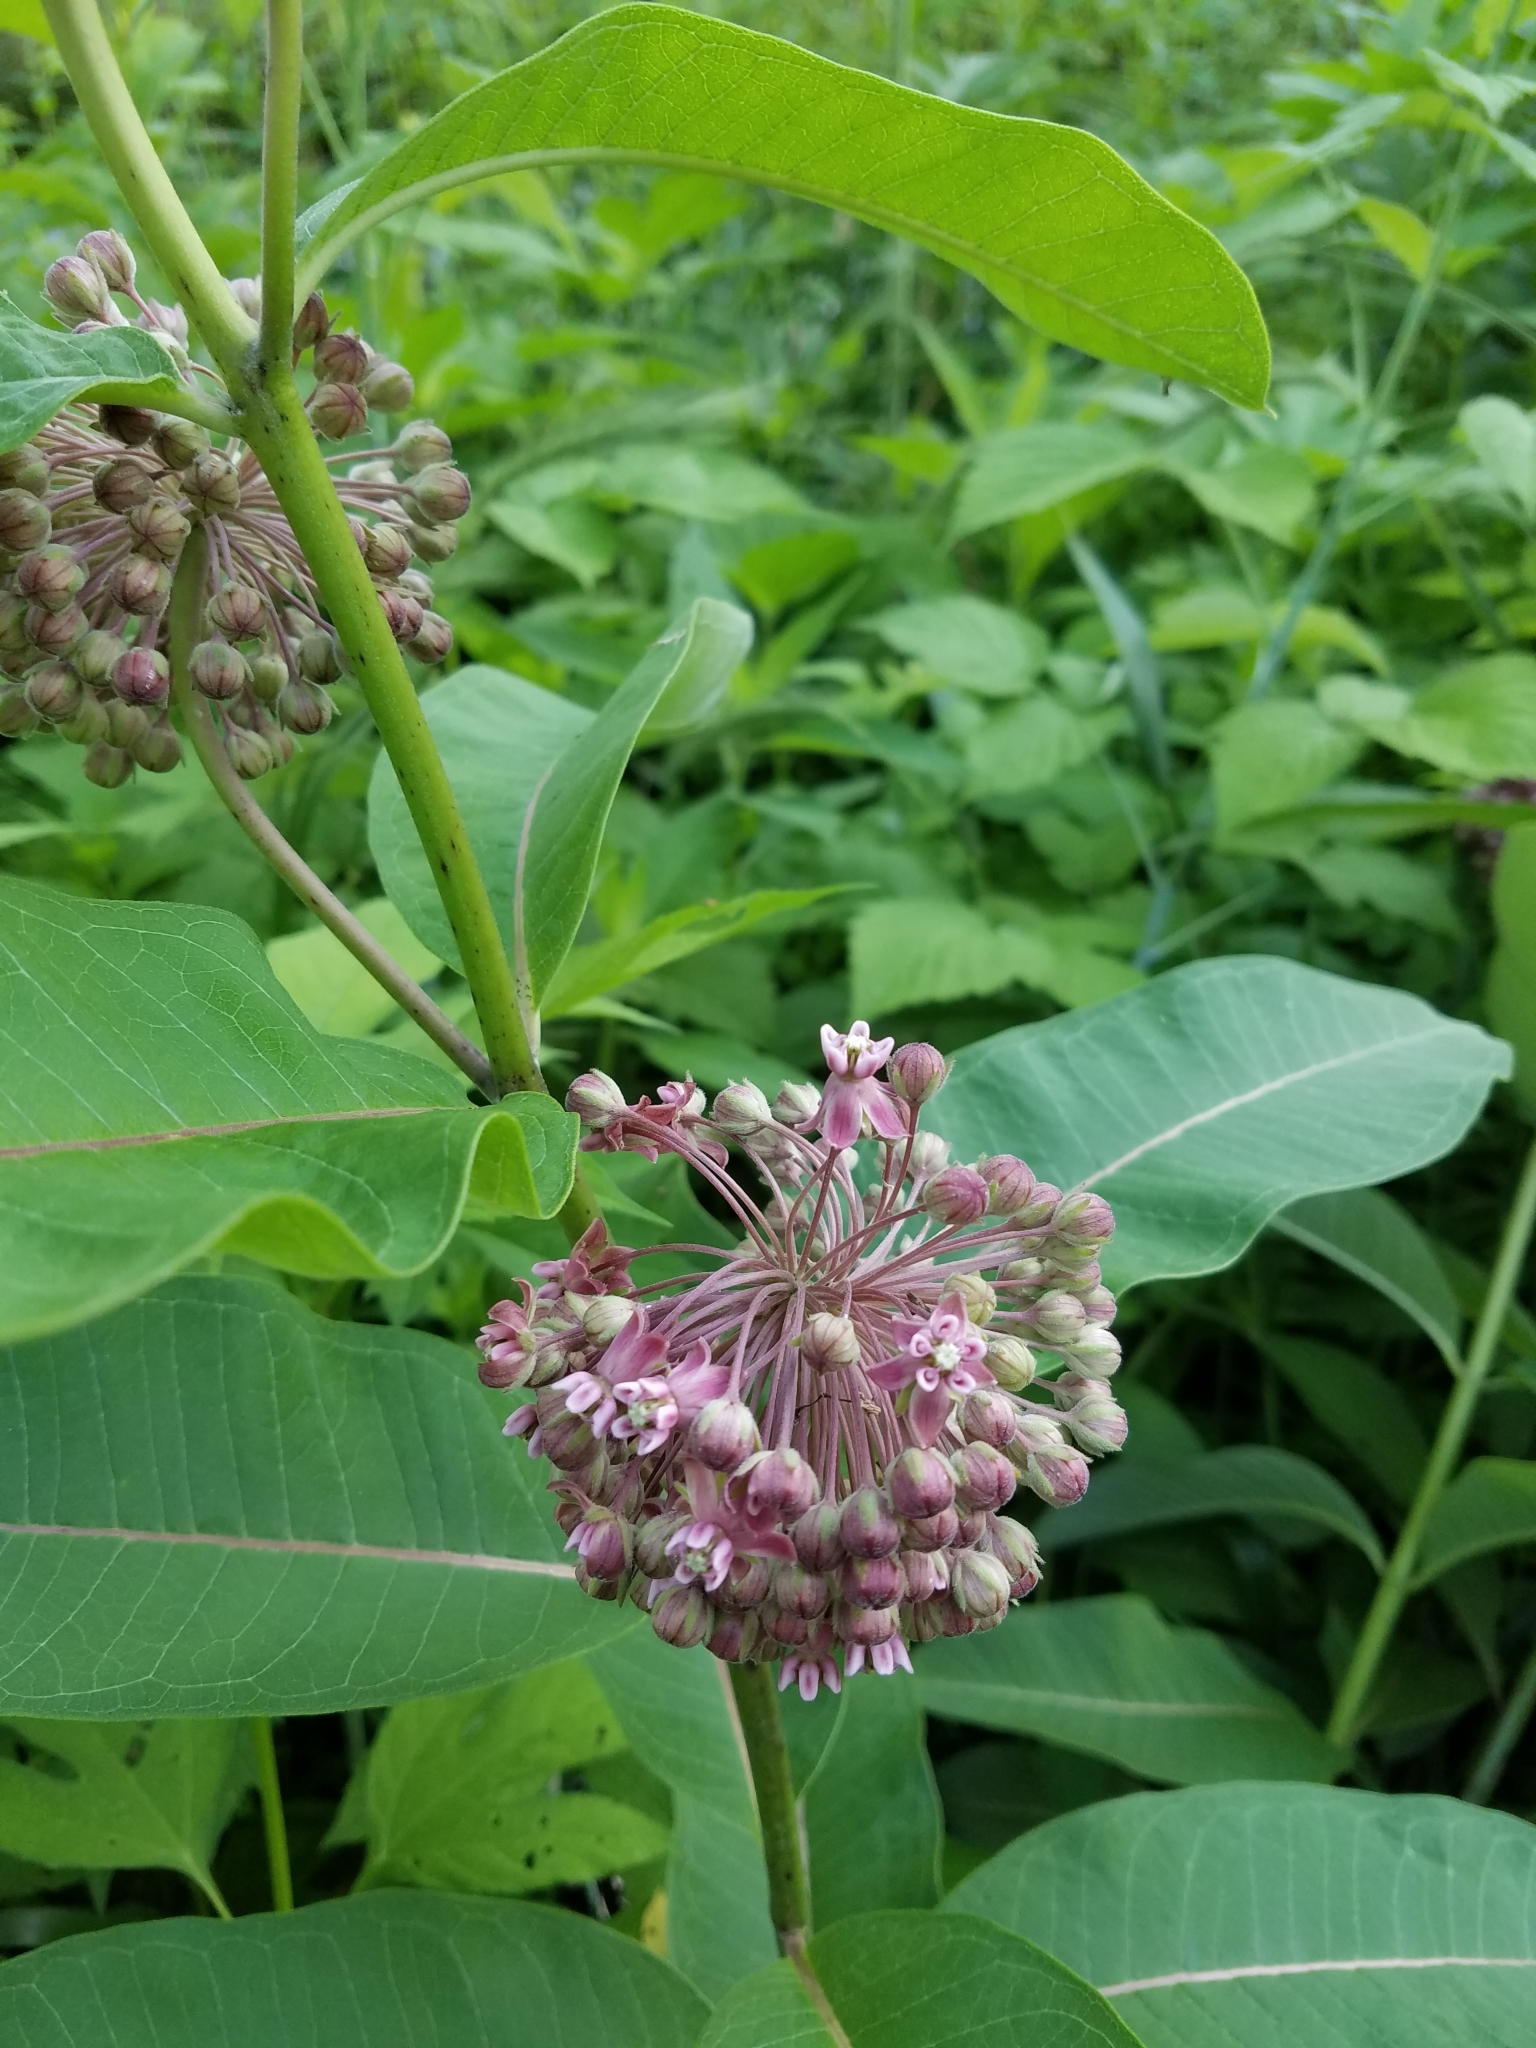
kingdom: Plantae
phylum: Tracheophyta
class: Magnoliopsida
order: Gentianales
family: Apocynaceae
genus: Asclepias
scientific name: Asclepias syriaca
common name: Common milkweed
